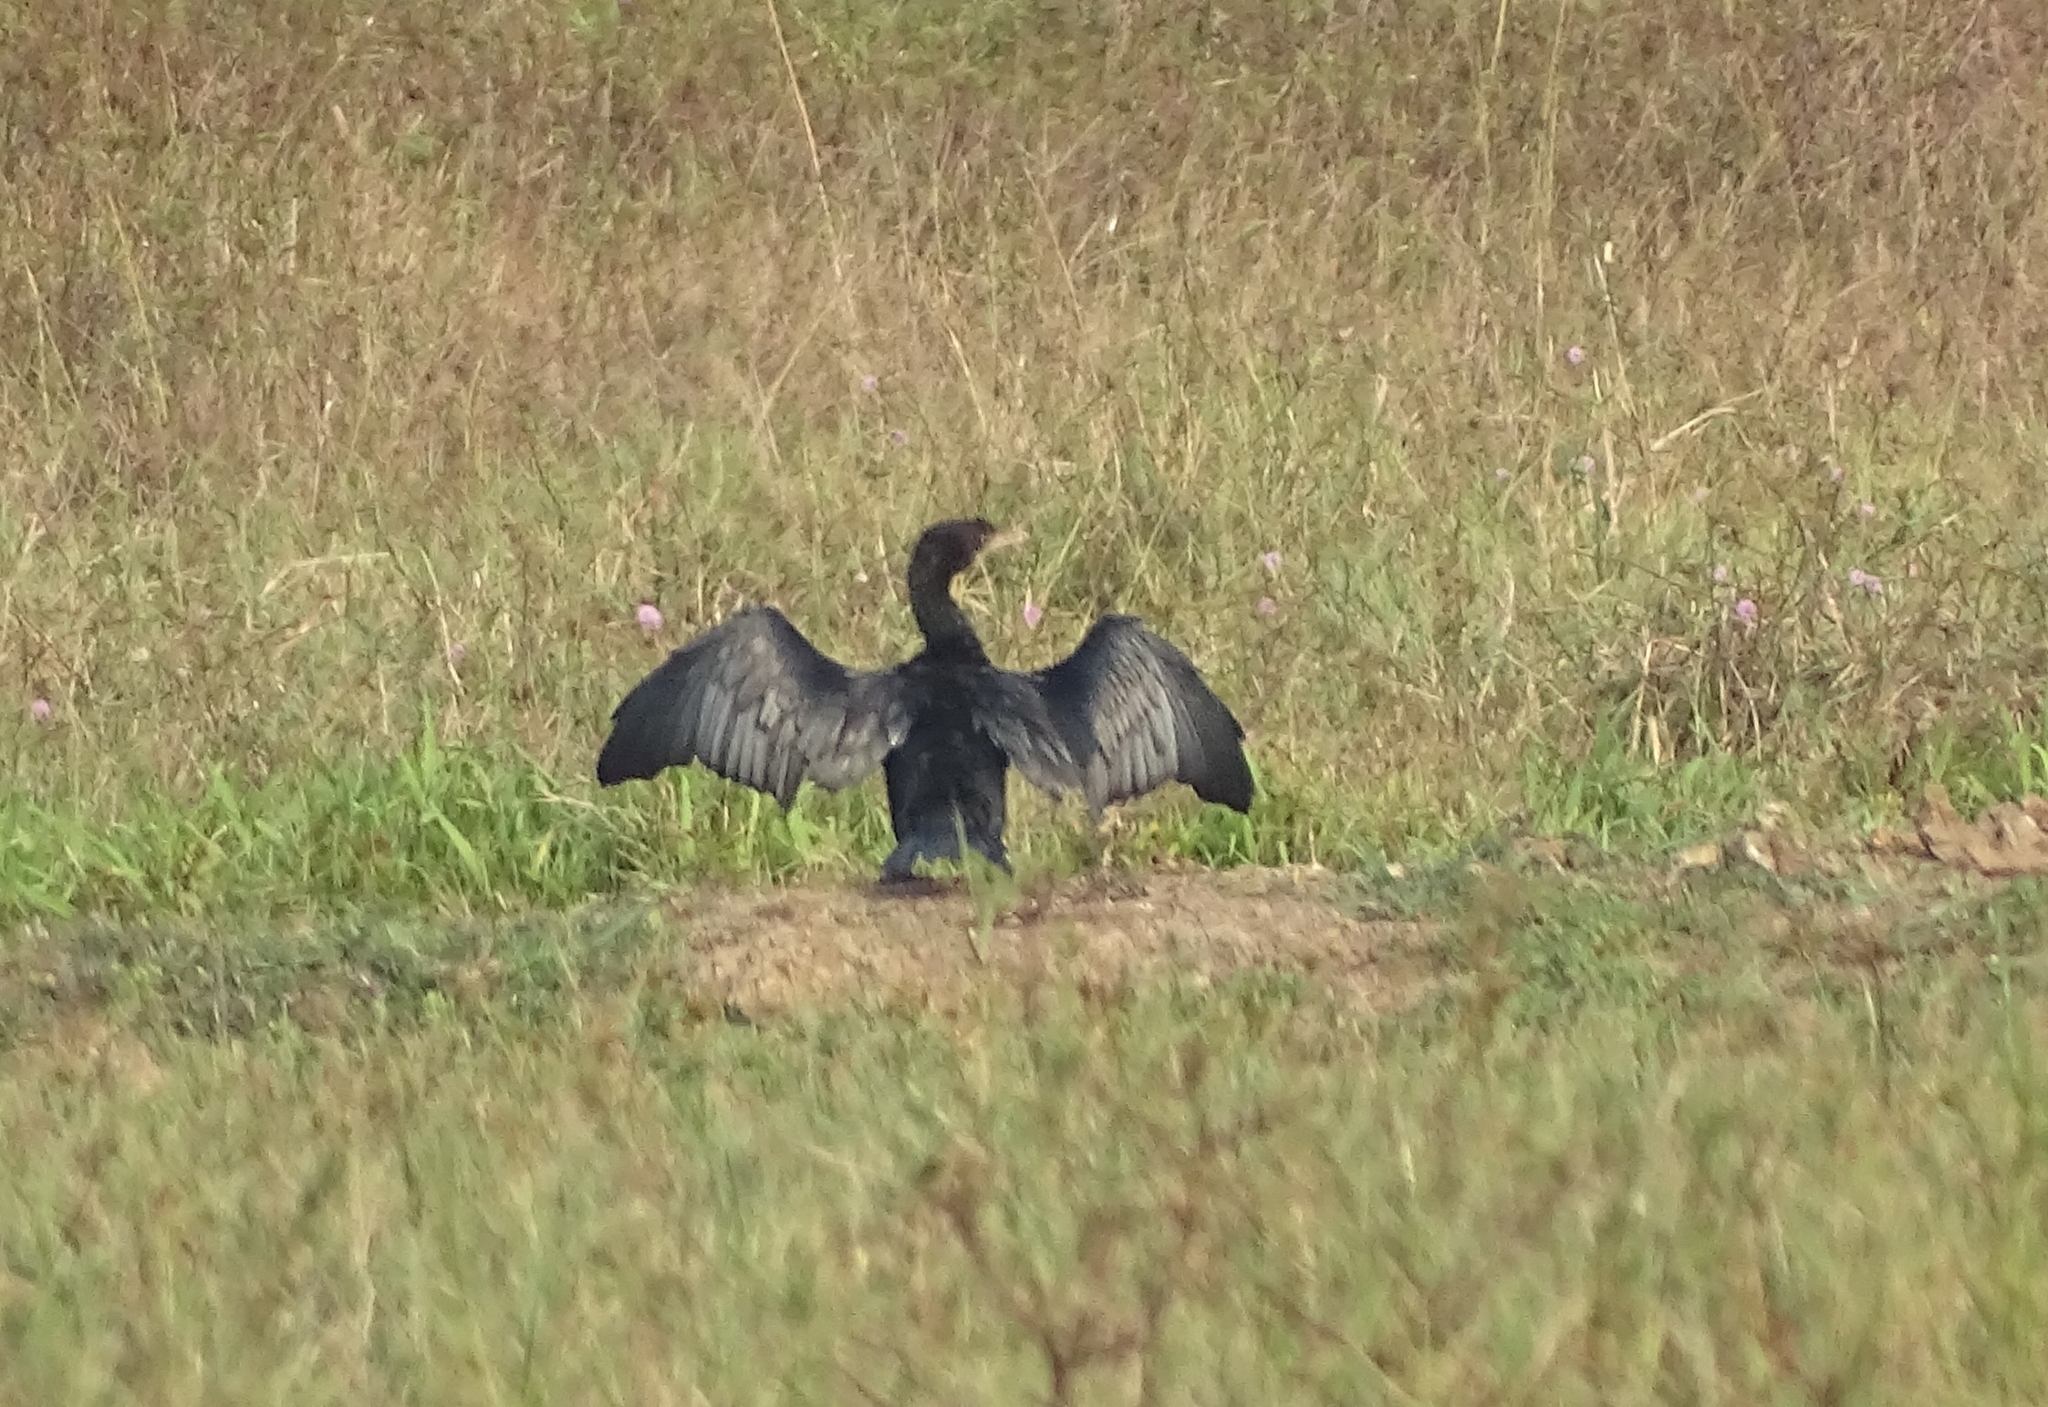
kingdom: Animalia
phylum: Chordata
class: Aves
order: Suliformes
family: Phalacrocoracidae
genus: Microcarbo
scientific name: Microcarbo niger
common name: Little cormorant
